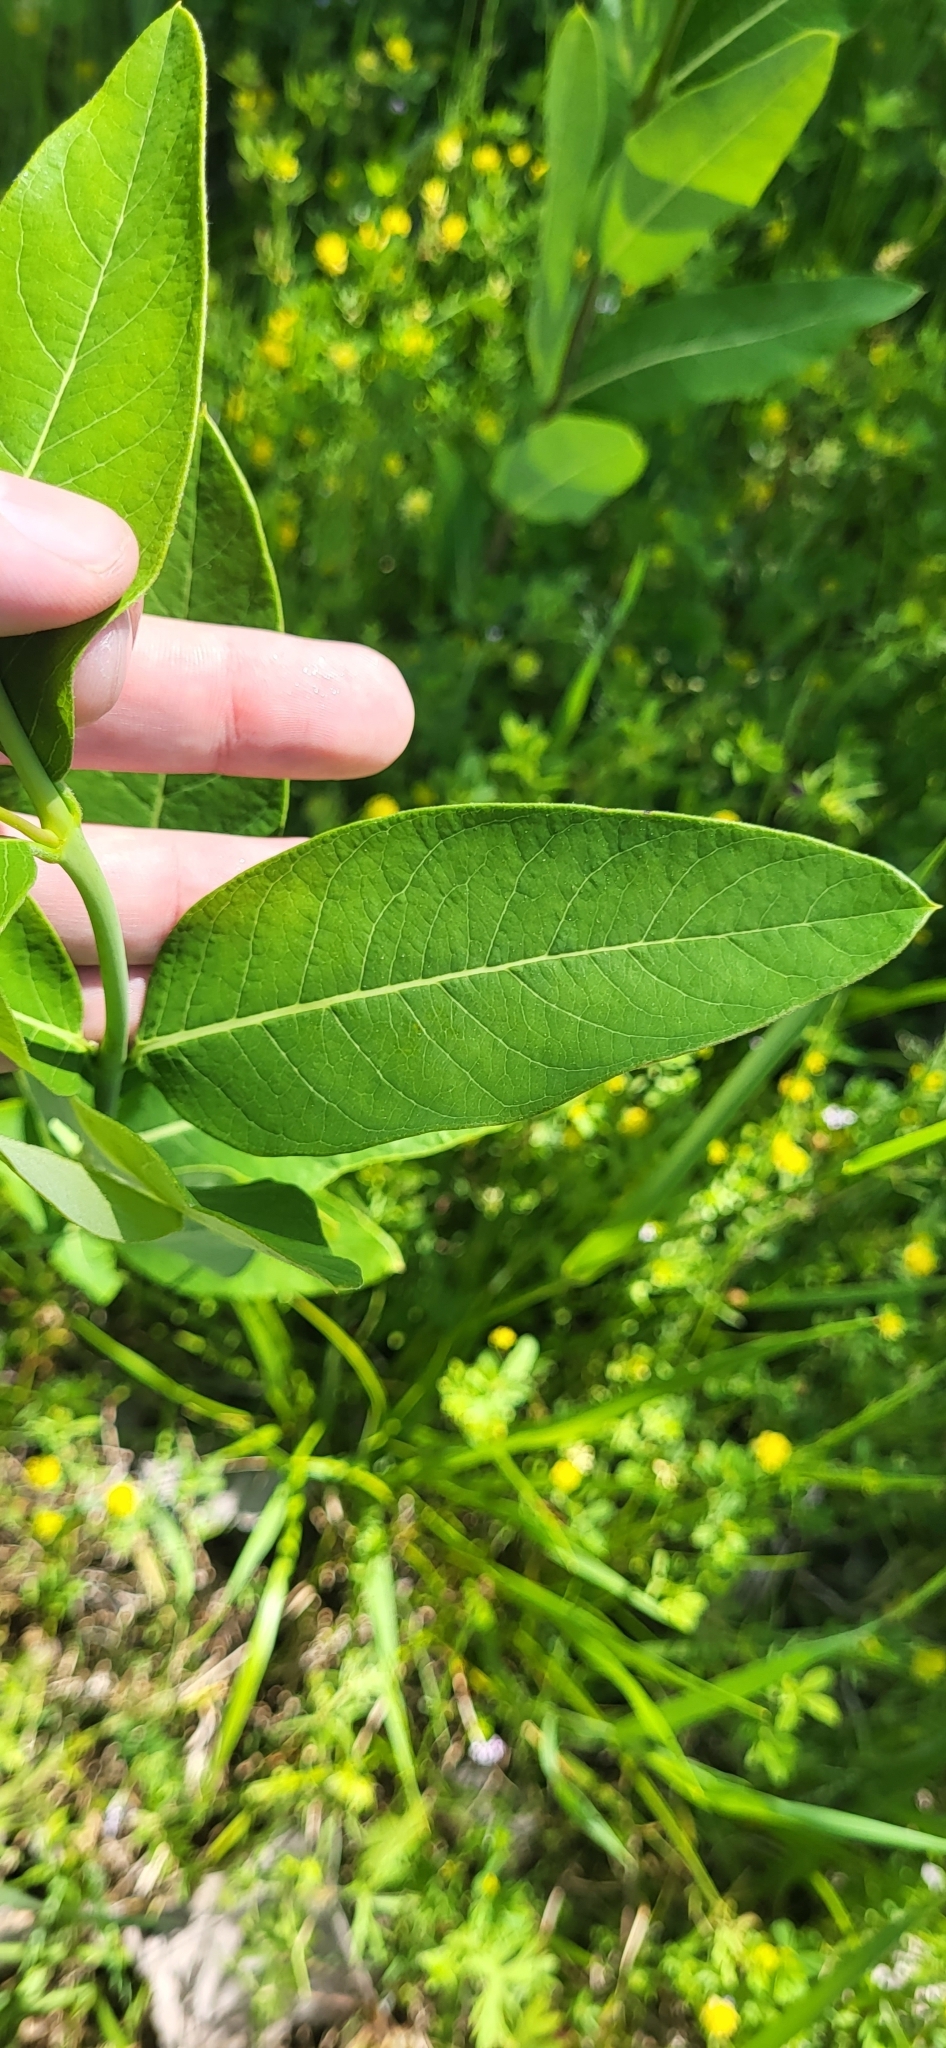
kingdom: Plantae
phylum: Tracheophyta
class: Magnoliopsida
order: Gentianales
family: Apocynaceae
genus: Apocynum
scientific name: Apocynum cannabinum
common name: Hemp dogbane
